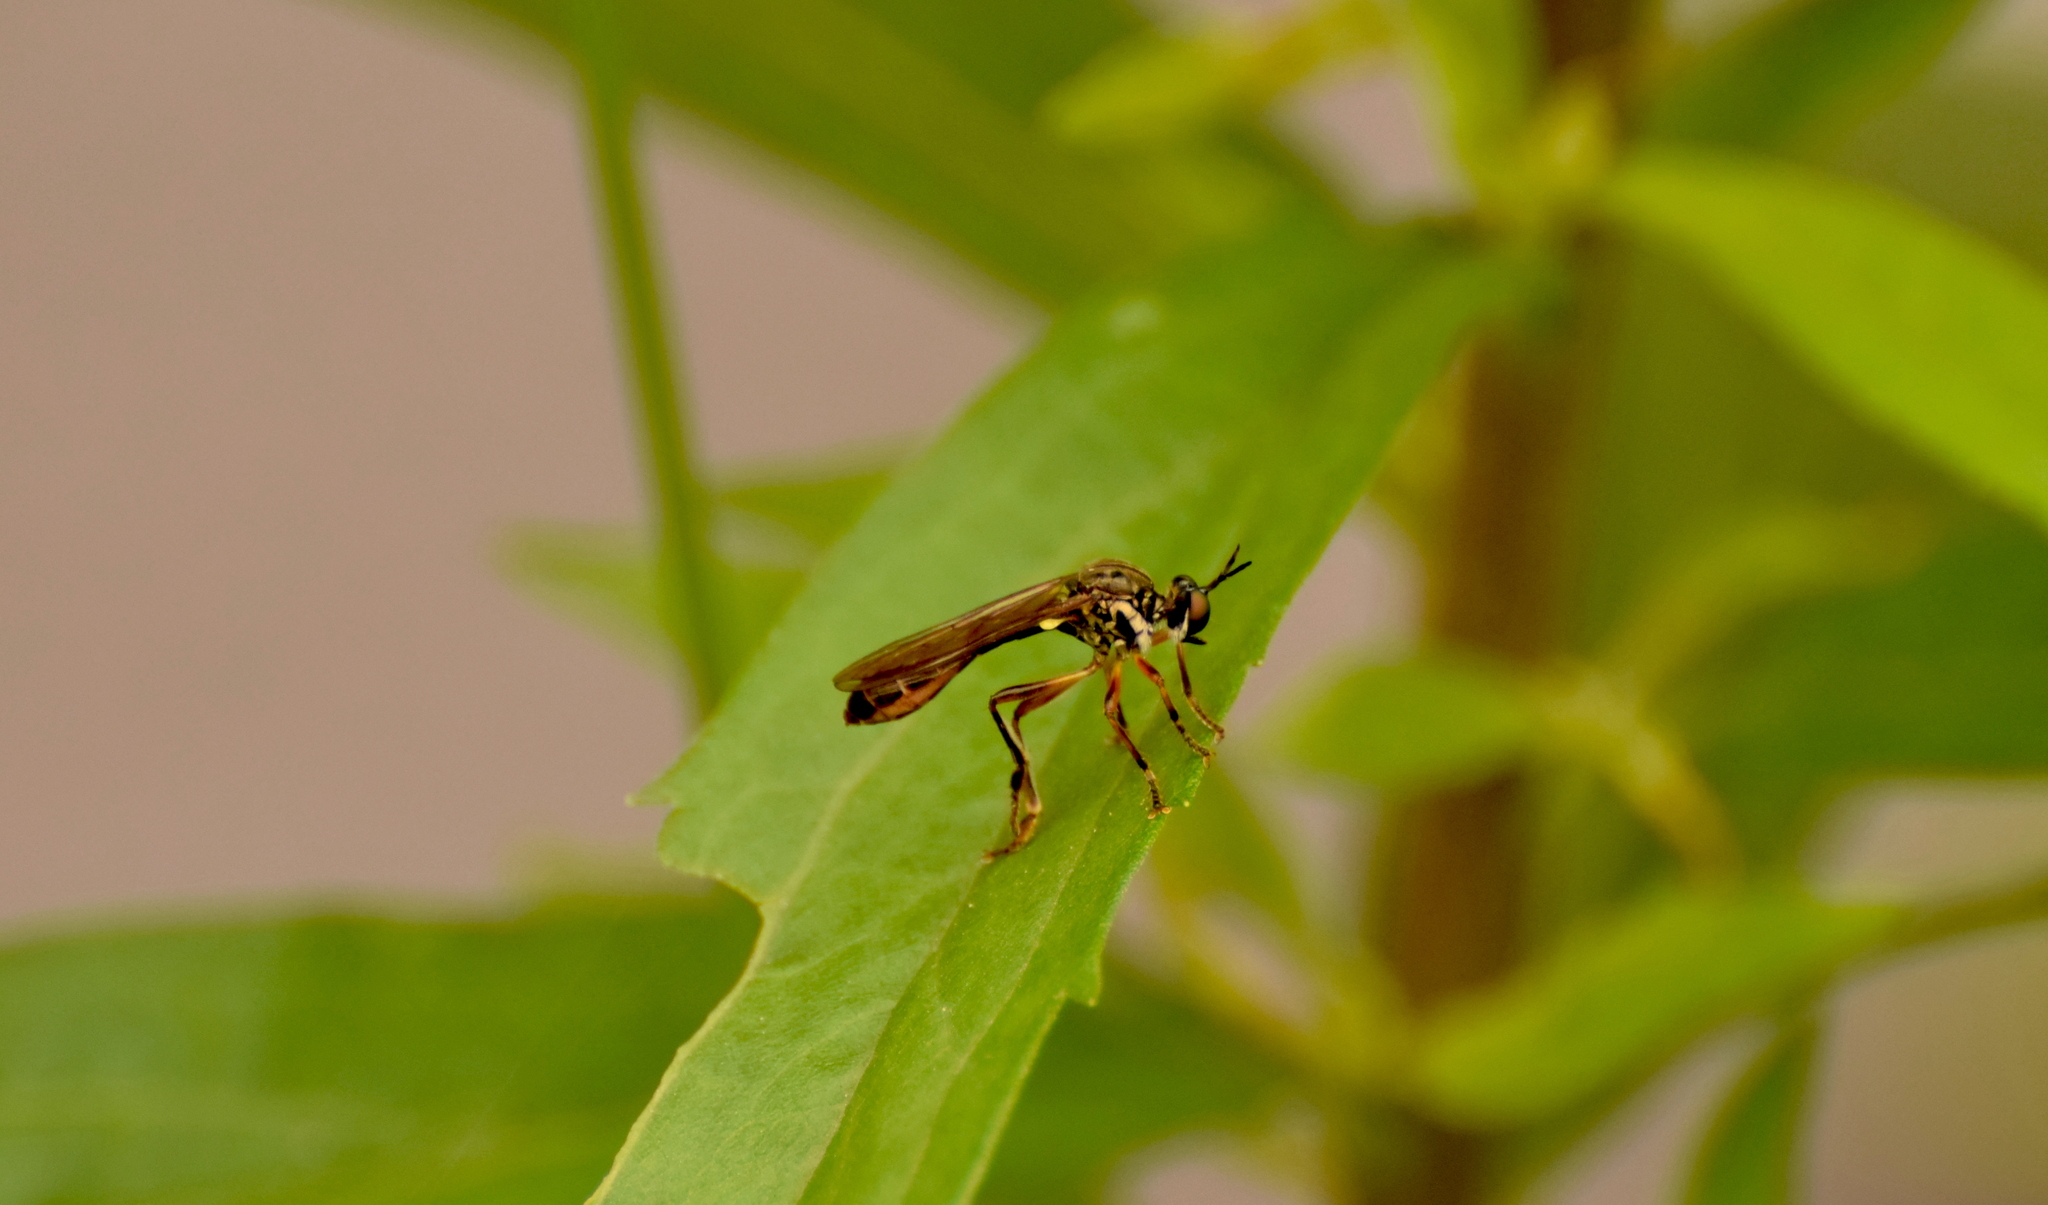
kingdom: Animalia
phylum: Arthropoda
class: Insecta
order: Diptera
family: Asilidae
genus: Dioctria
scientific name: Dioctria hyalipennis
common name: Stripe-legged robberfly
